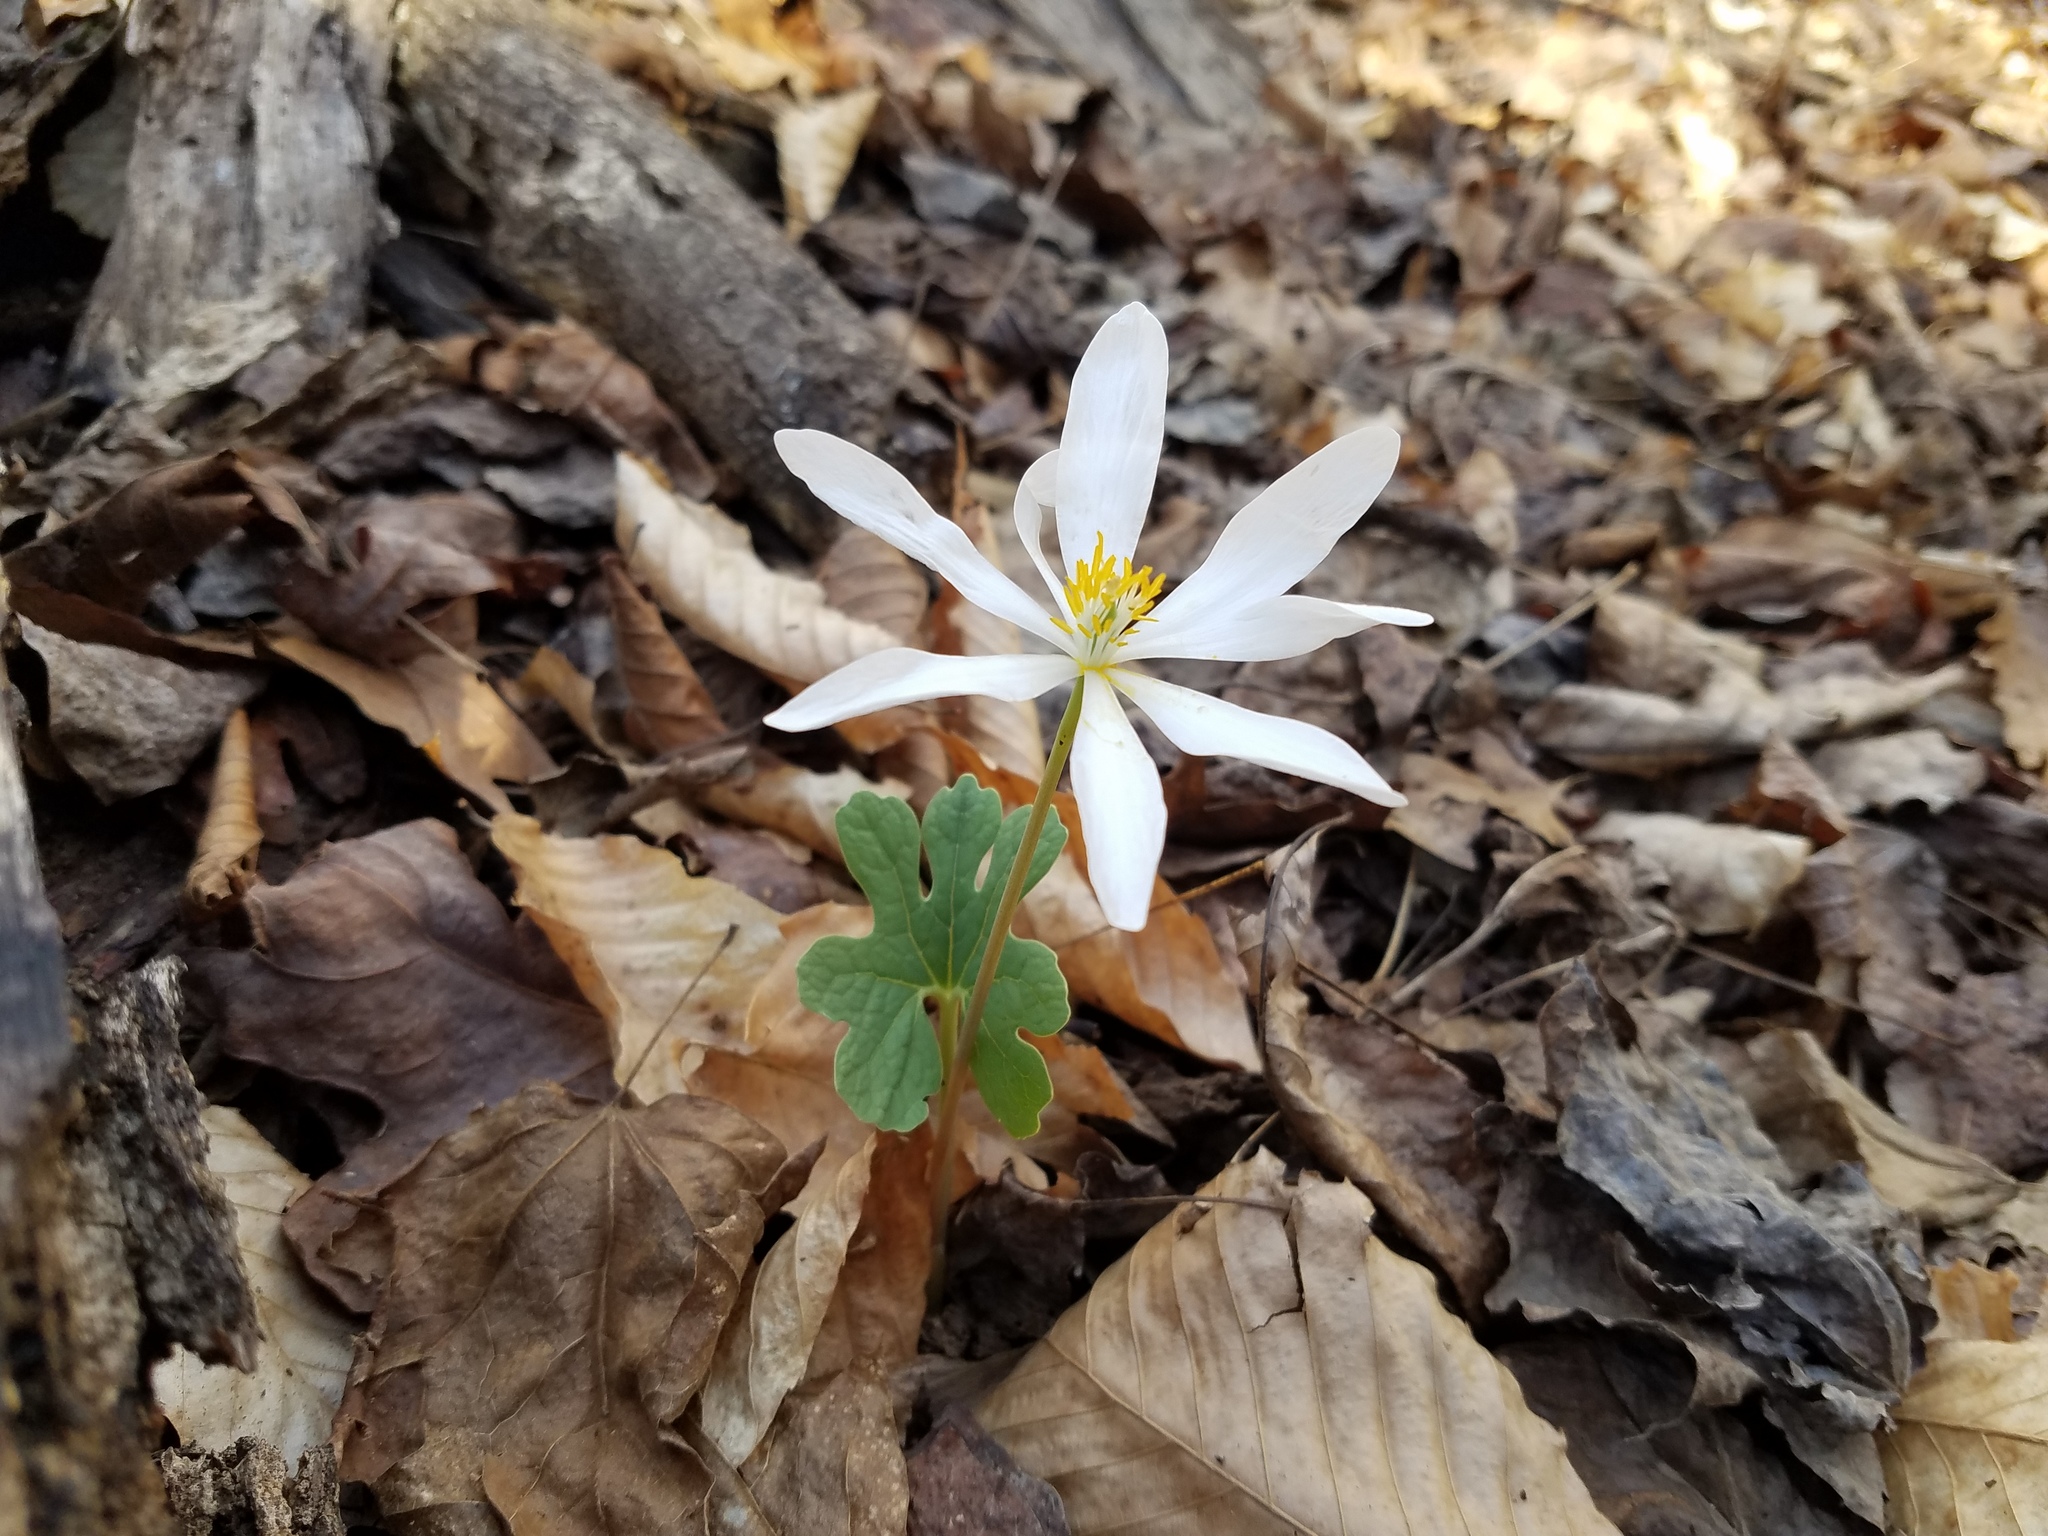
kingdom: Plantae
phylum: Tracheophyta
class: Magnoliopsida
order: Ranunculales
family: Papaveraceae
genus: Sanguinaria
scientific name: Sanguinaria canadensis
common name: Bloodroot
